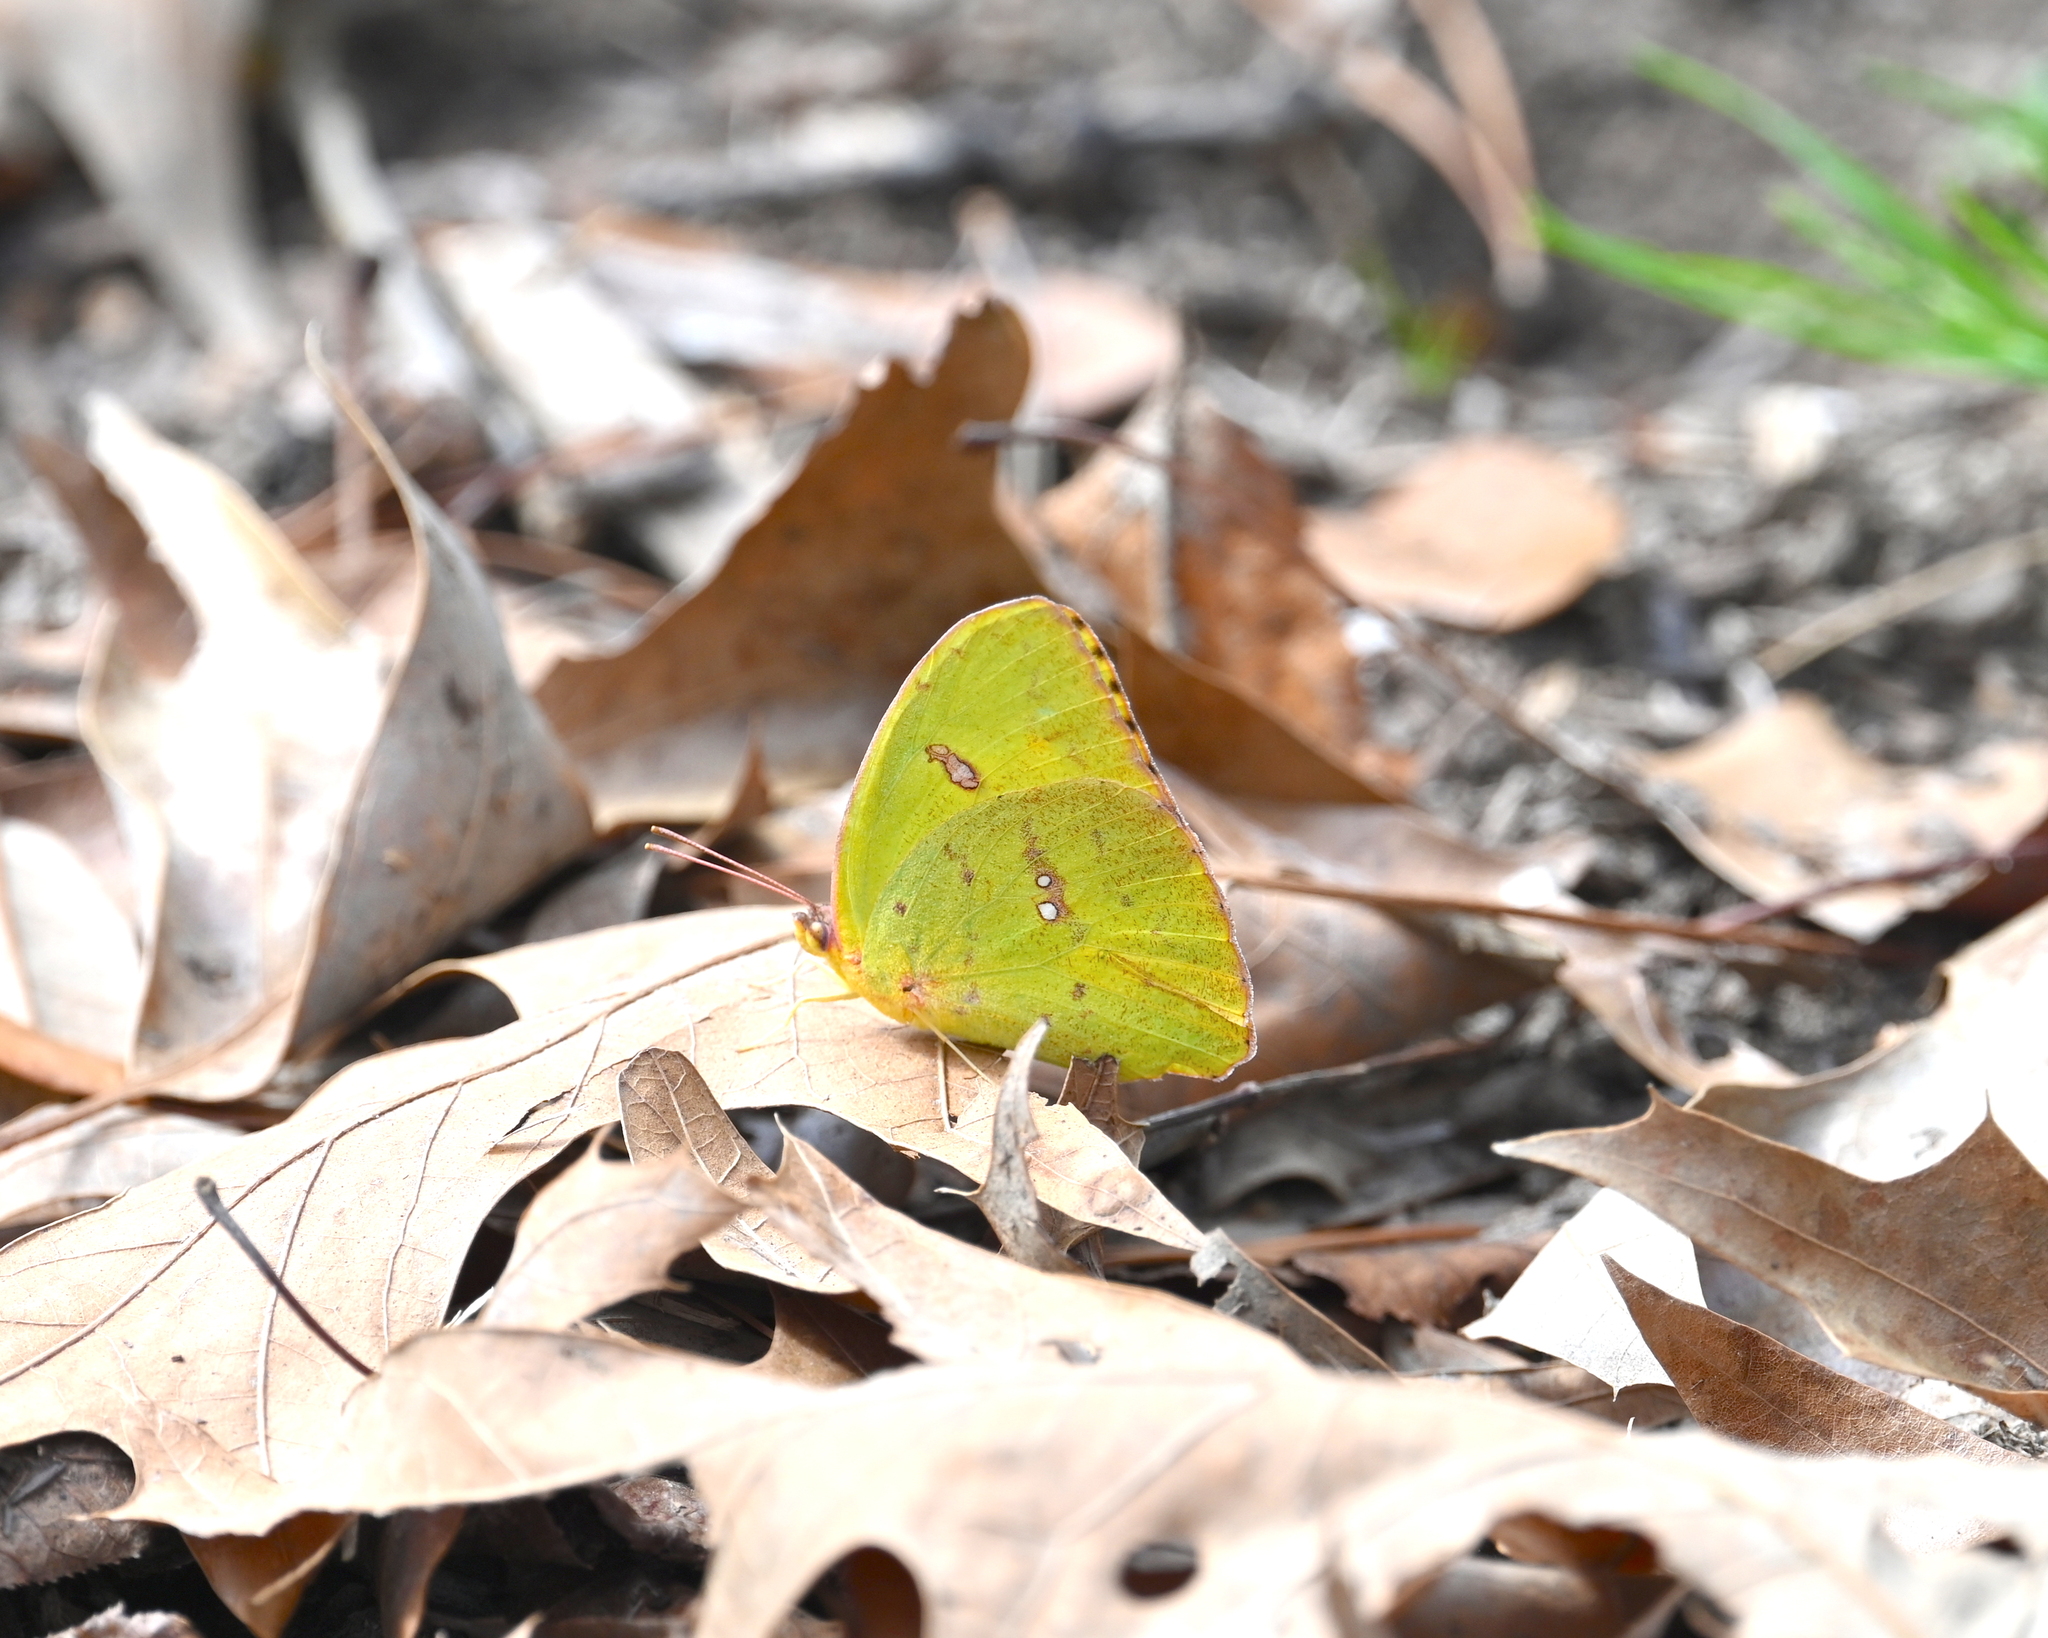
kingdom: Animalia
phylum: Arthropoda
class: Insecta
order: Lepidoptera
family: Pieridae
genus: Phoebis
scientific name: Phoebis sennae
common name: Cloudless sulphur
